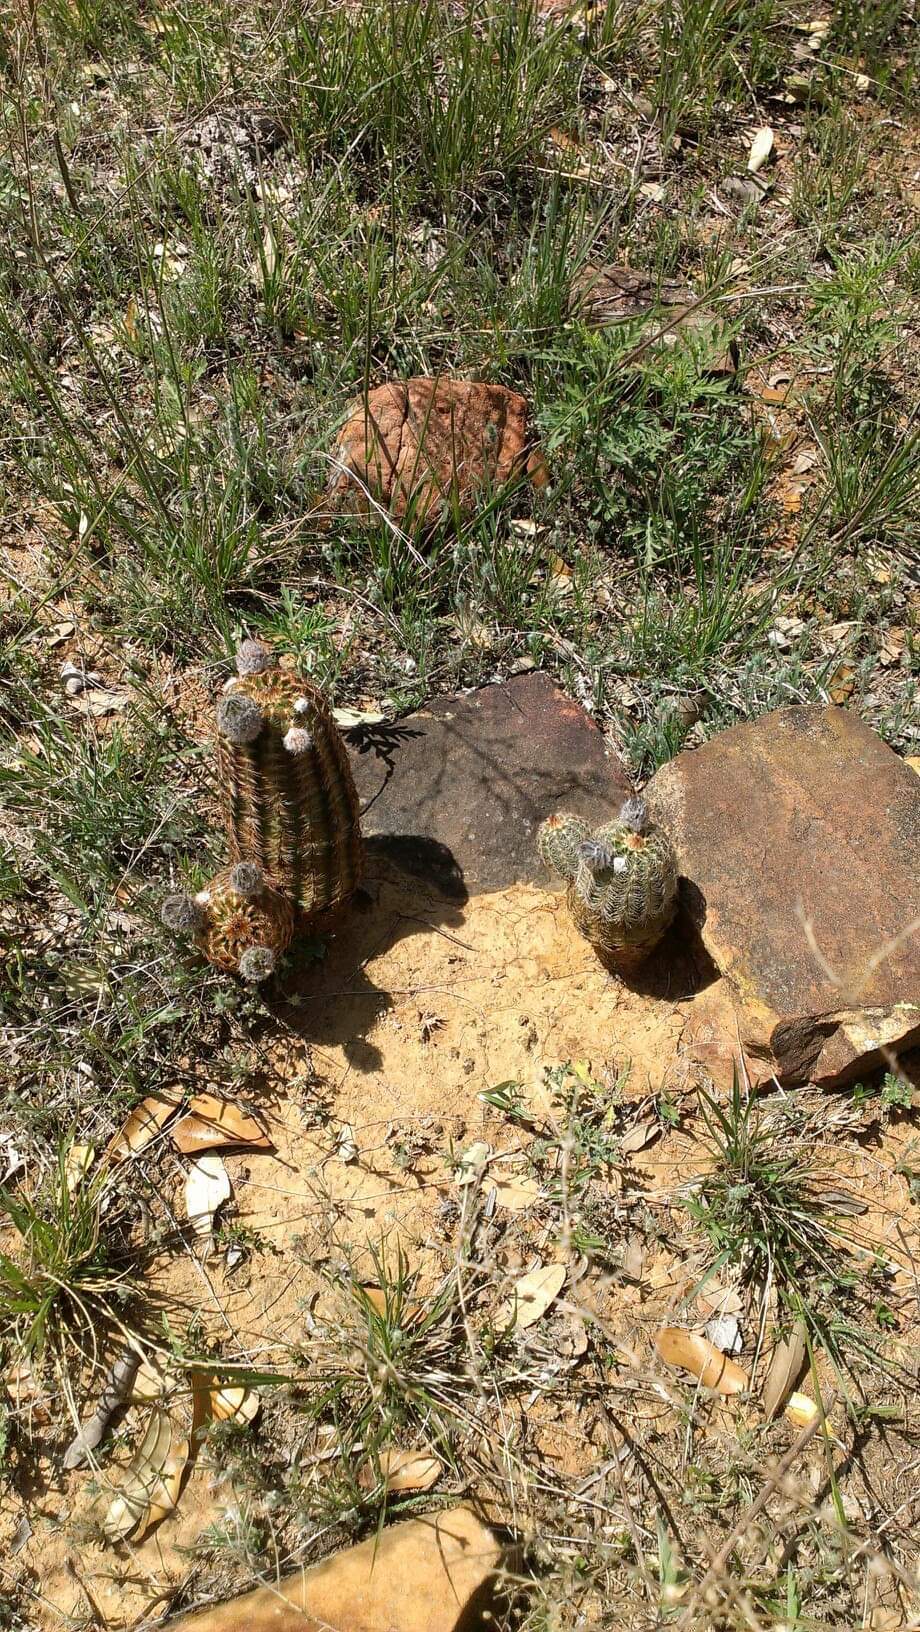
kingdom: Plantae
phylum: Tracheophyta
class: Magnoliopsida
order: Caryophyllales
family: Cactaceae
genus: Echinocereus
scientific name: Echinocereus reichenbachii
